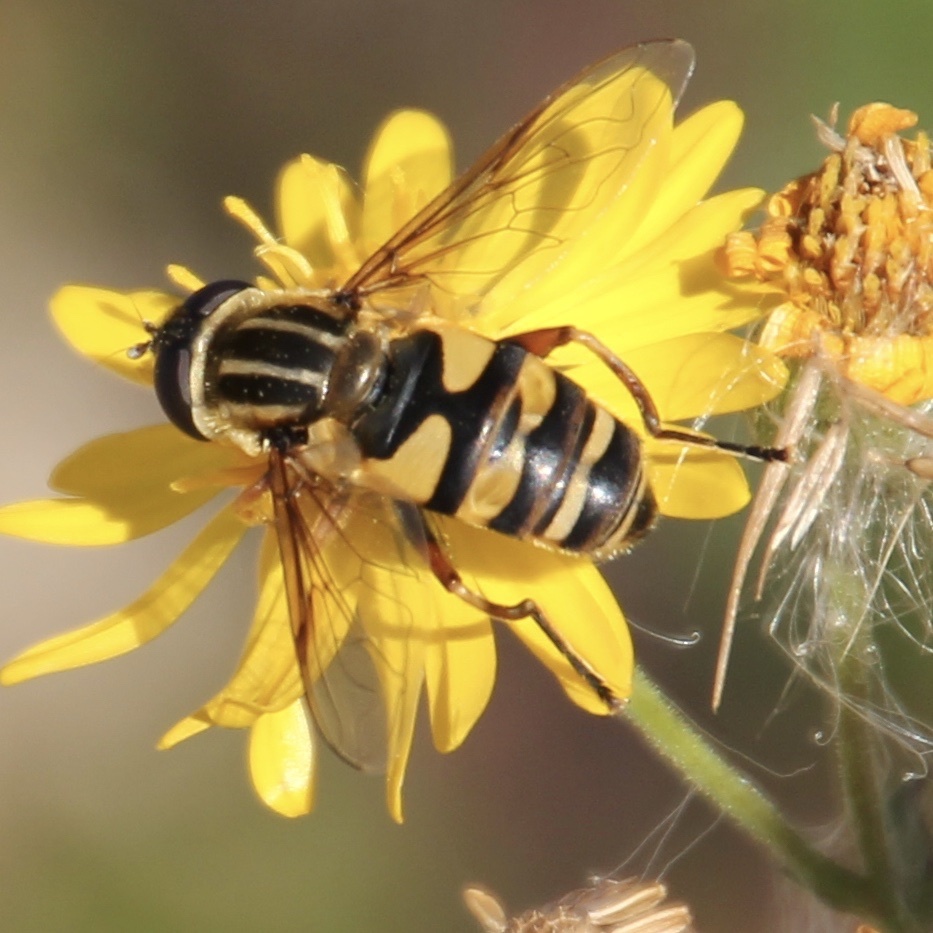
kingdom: Animalia
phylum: Arthropoda
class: Insecta
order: Diptera
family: Syrphidae
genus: Helophilus
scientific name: Helophilus fasciatus
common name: Narrow-headed marsh fly
